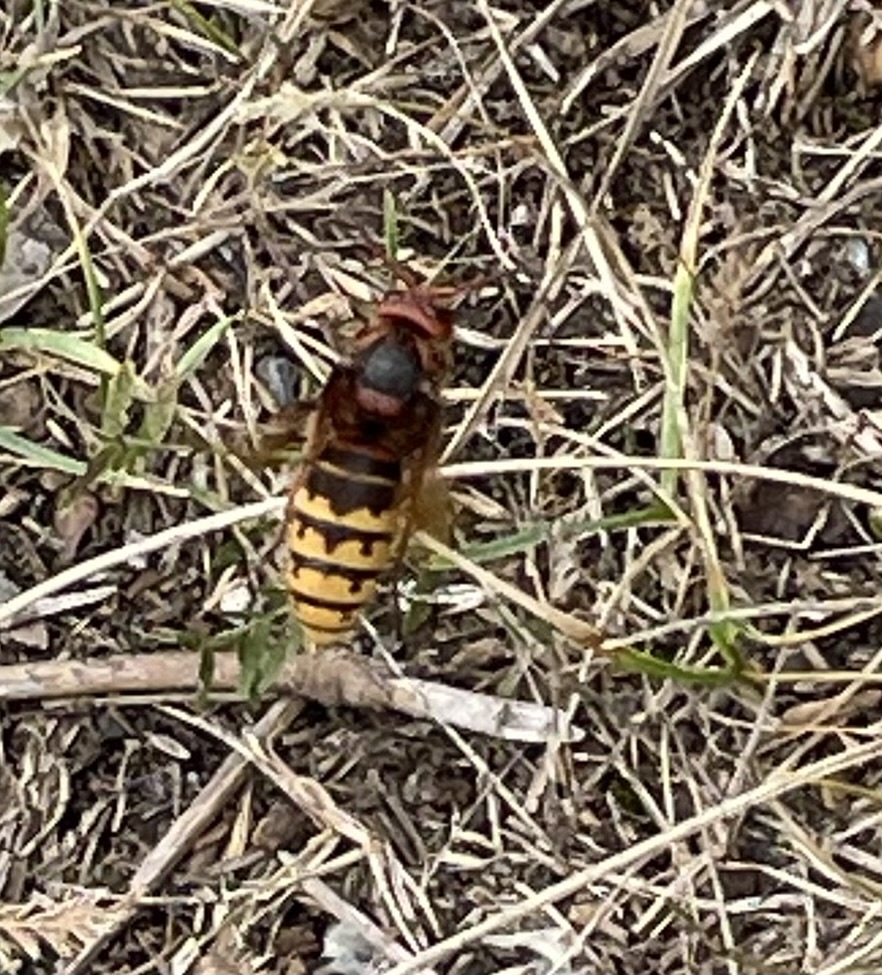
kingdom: Animalia
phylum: Arthropoda
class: Insecta
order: Hymenoptera
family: Vespidae
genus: Vespa
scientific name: Vespa crabro
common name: Hornet
